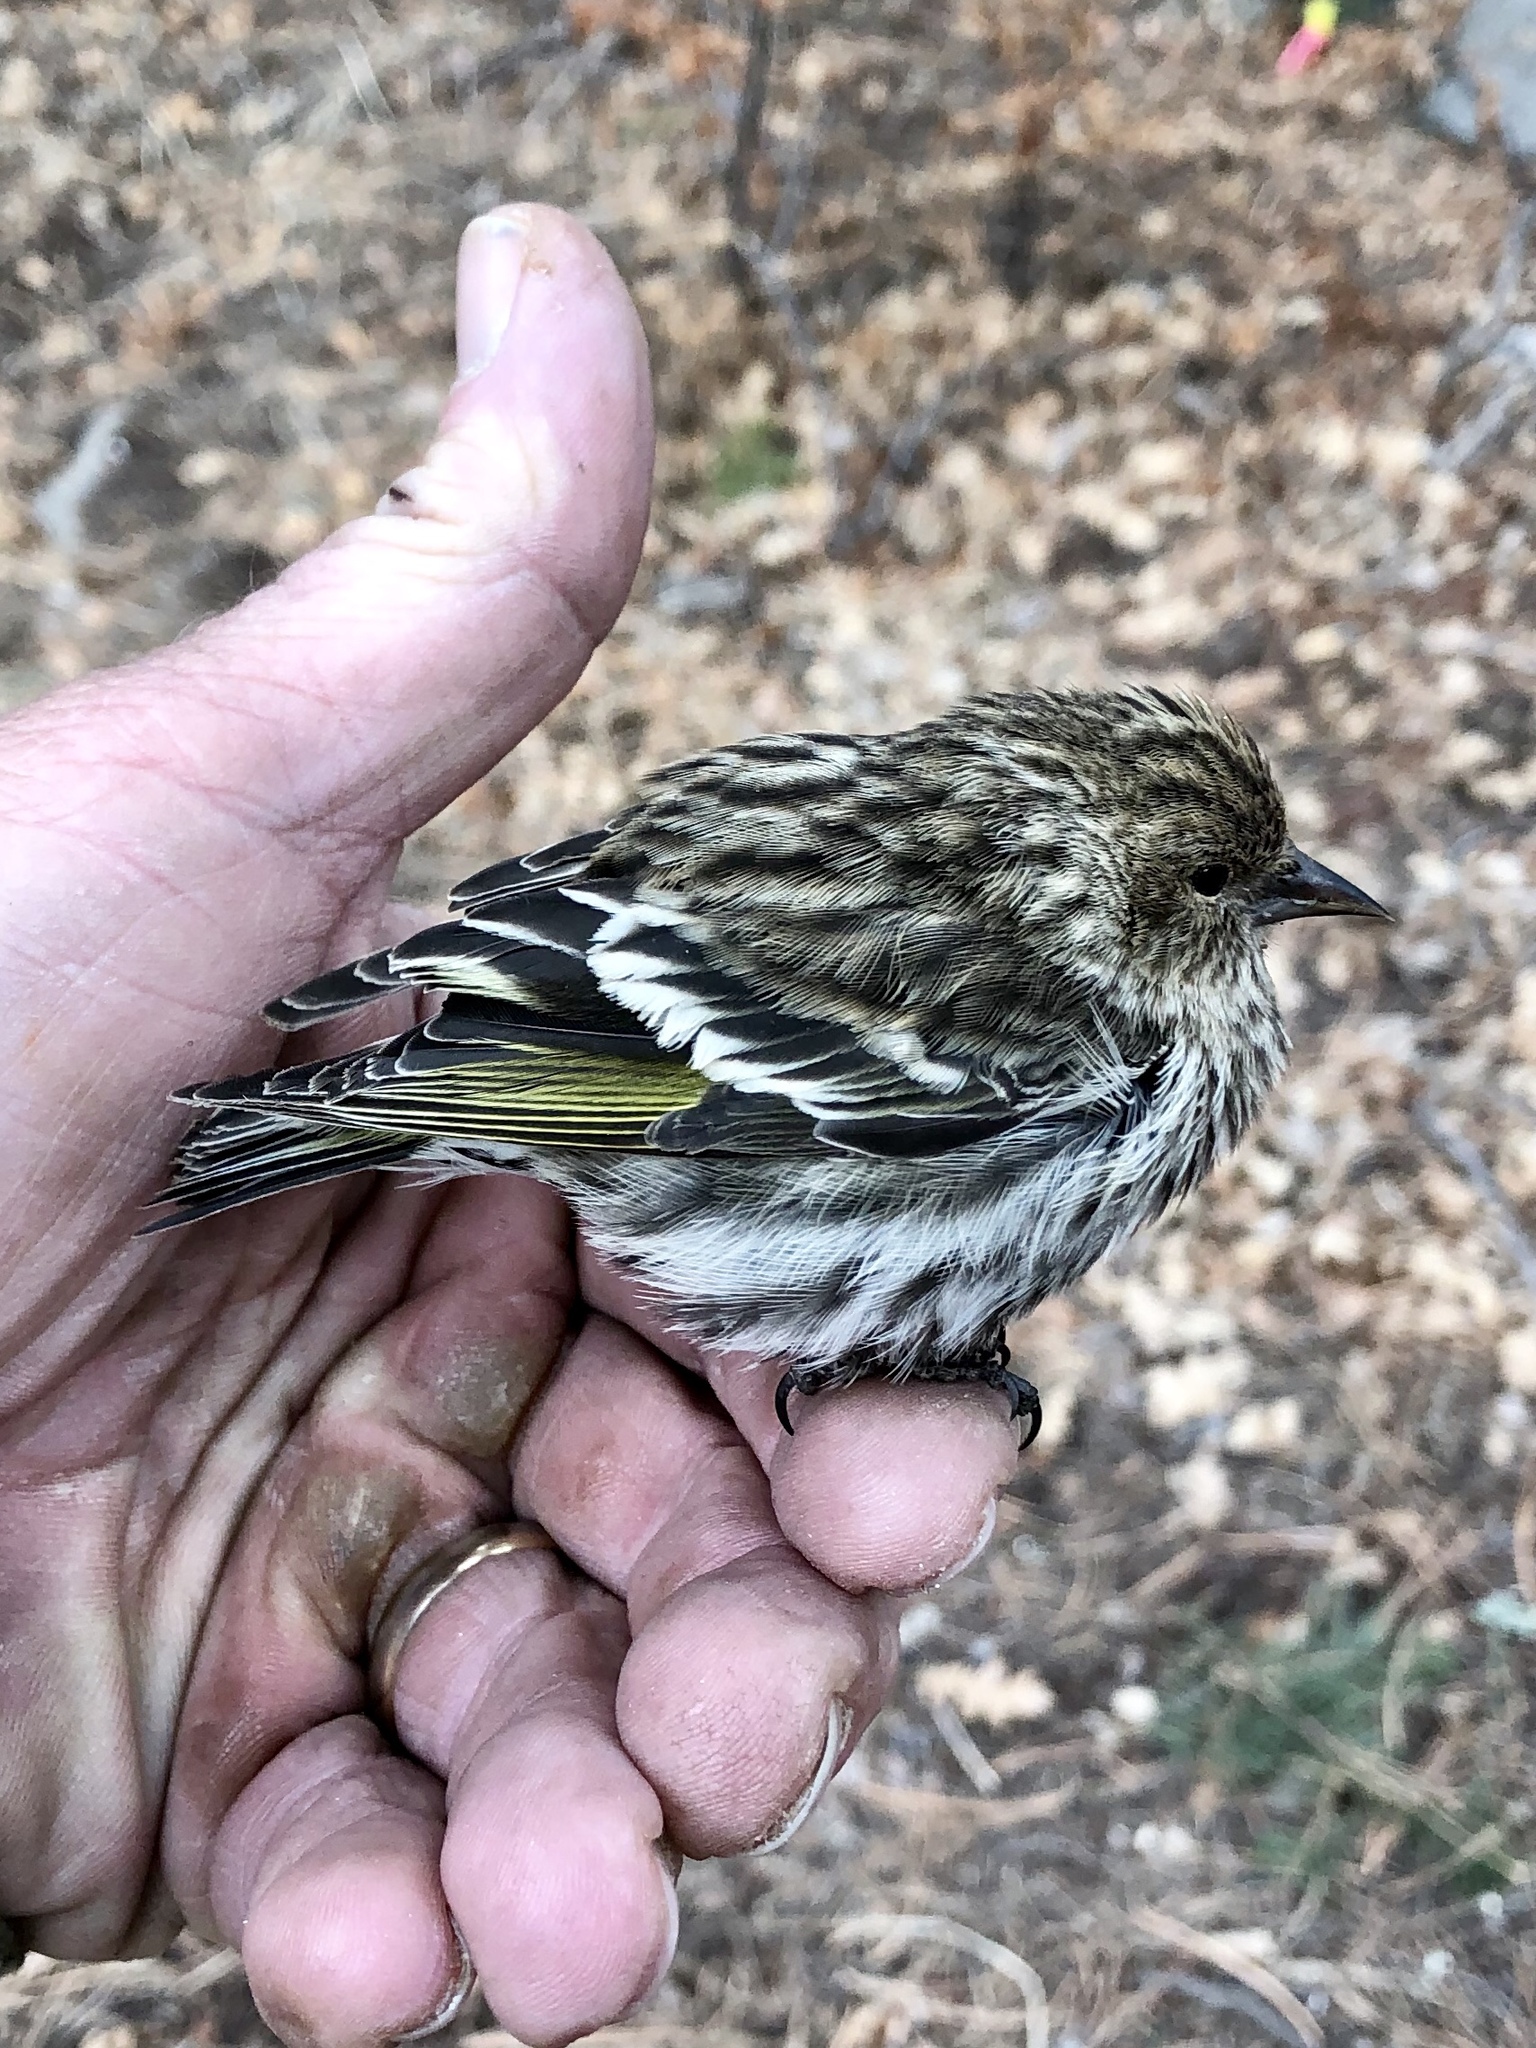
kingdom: Animalia
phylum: Chordata
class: Aves
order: Passeriformes
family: Fringillidae
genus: Spinus
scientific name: Spinus pinus
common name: Pine siskin
